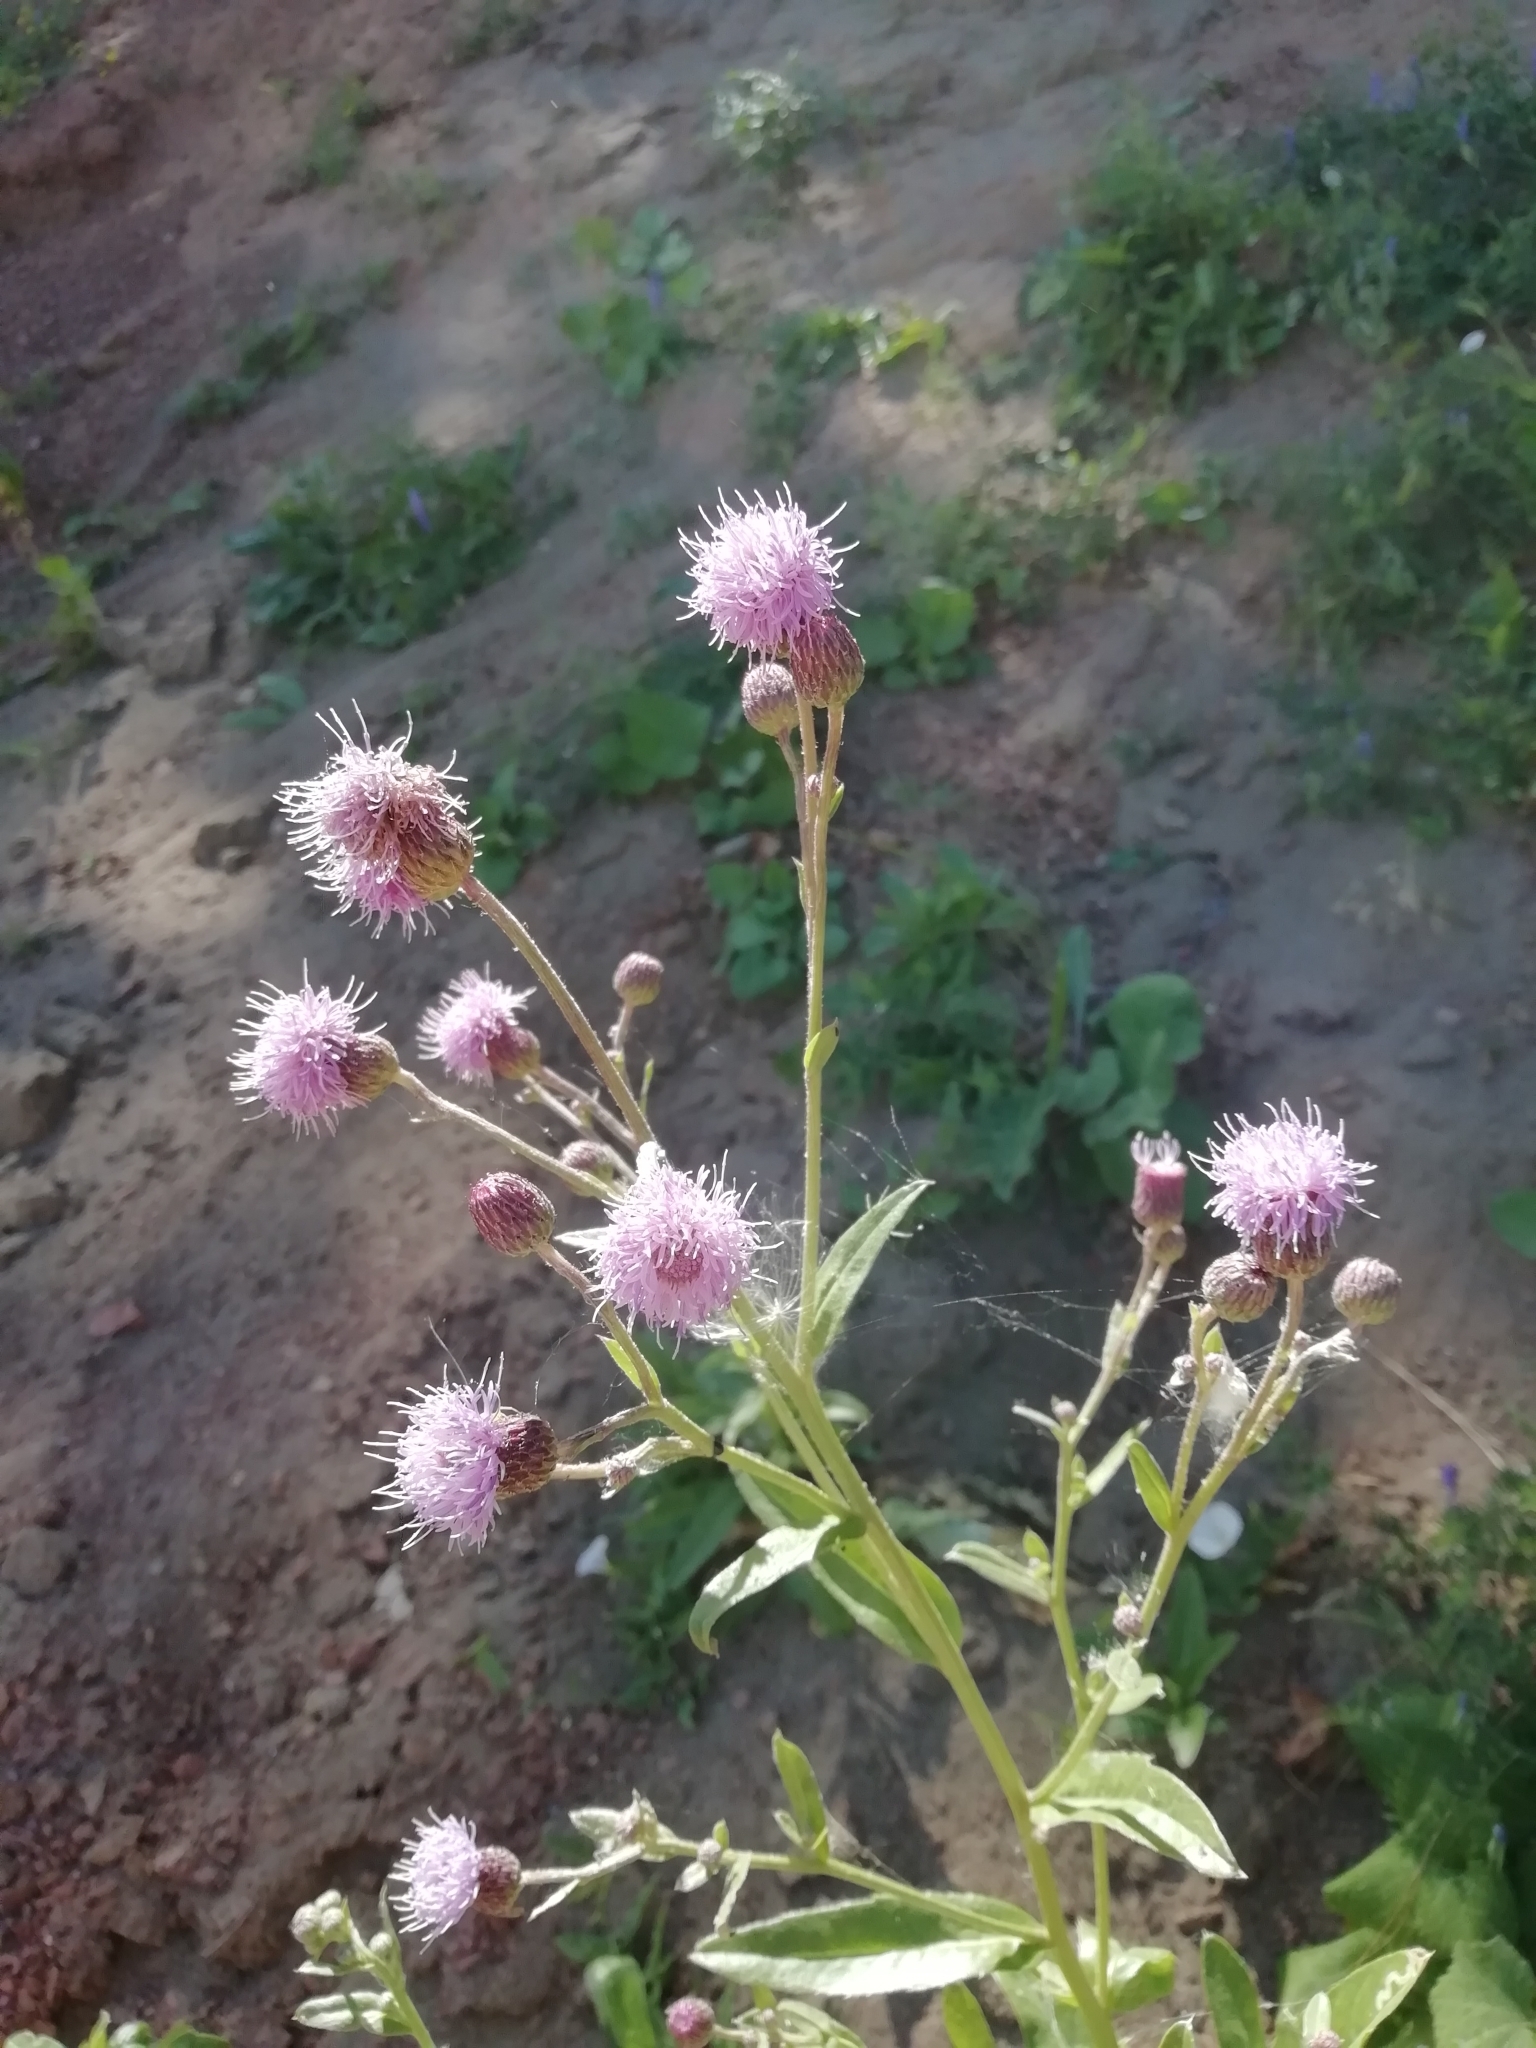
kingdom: Plantae
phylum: Tracheophyta
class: Magnoliopsida
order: Asterales
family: Asteraceae
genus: Cirsium
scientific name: Cirsium arvense
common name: Creeping thistle
